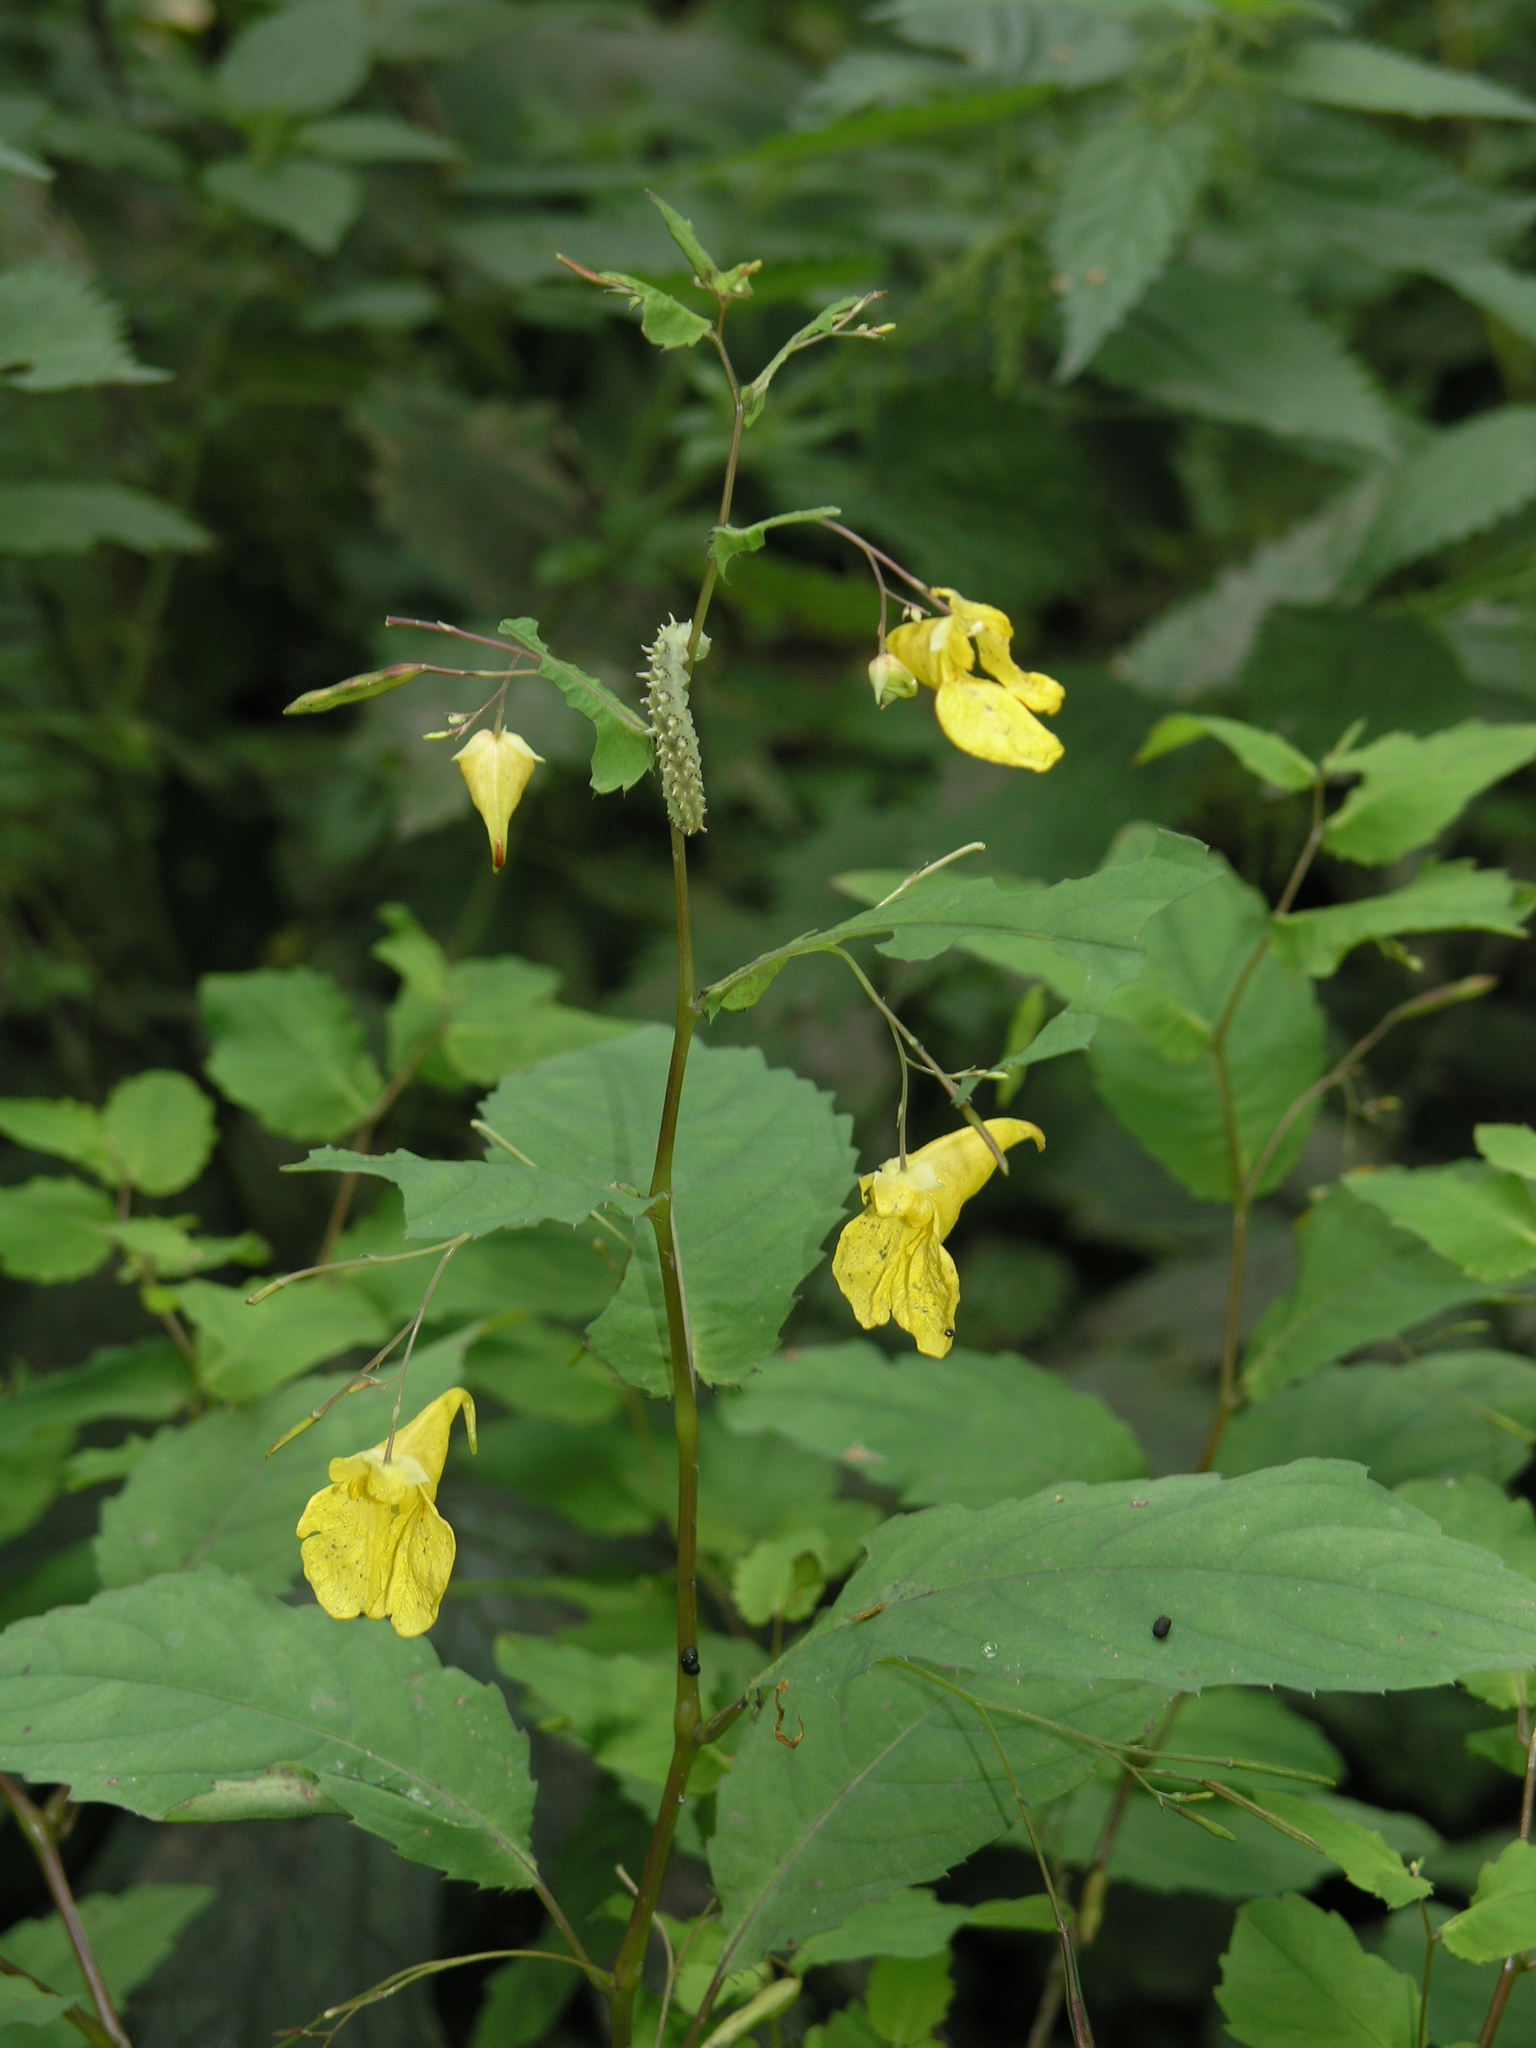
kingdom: Plantae
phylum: Tracheophyta
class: Magnoliopsida
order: Ericales
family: Balsaminaceae
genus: Impatiens
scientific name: Impatiens noli-tangere
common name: Touch-me-not balsam
